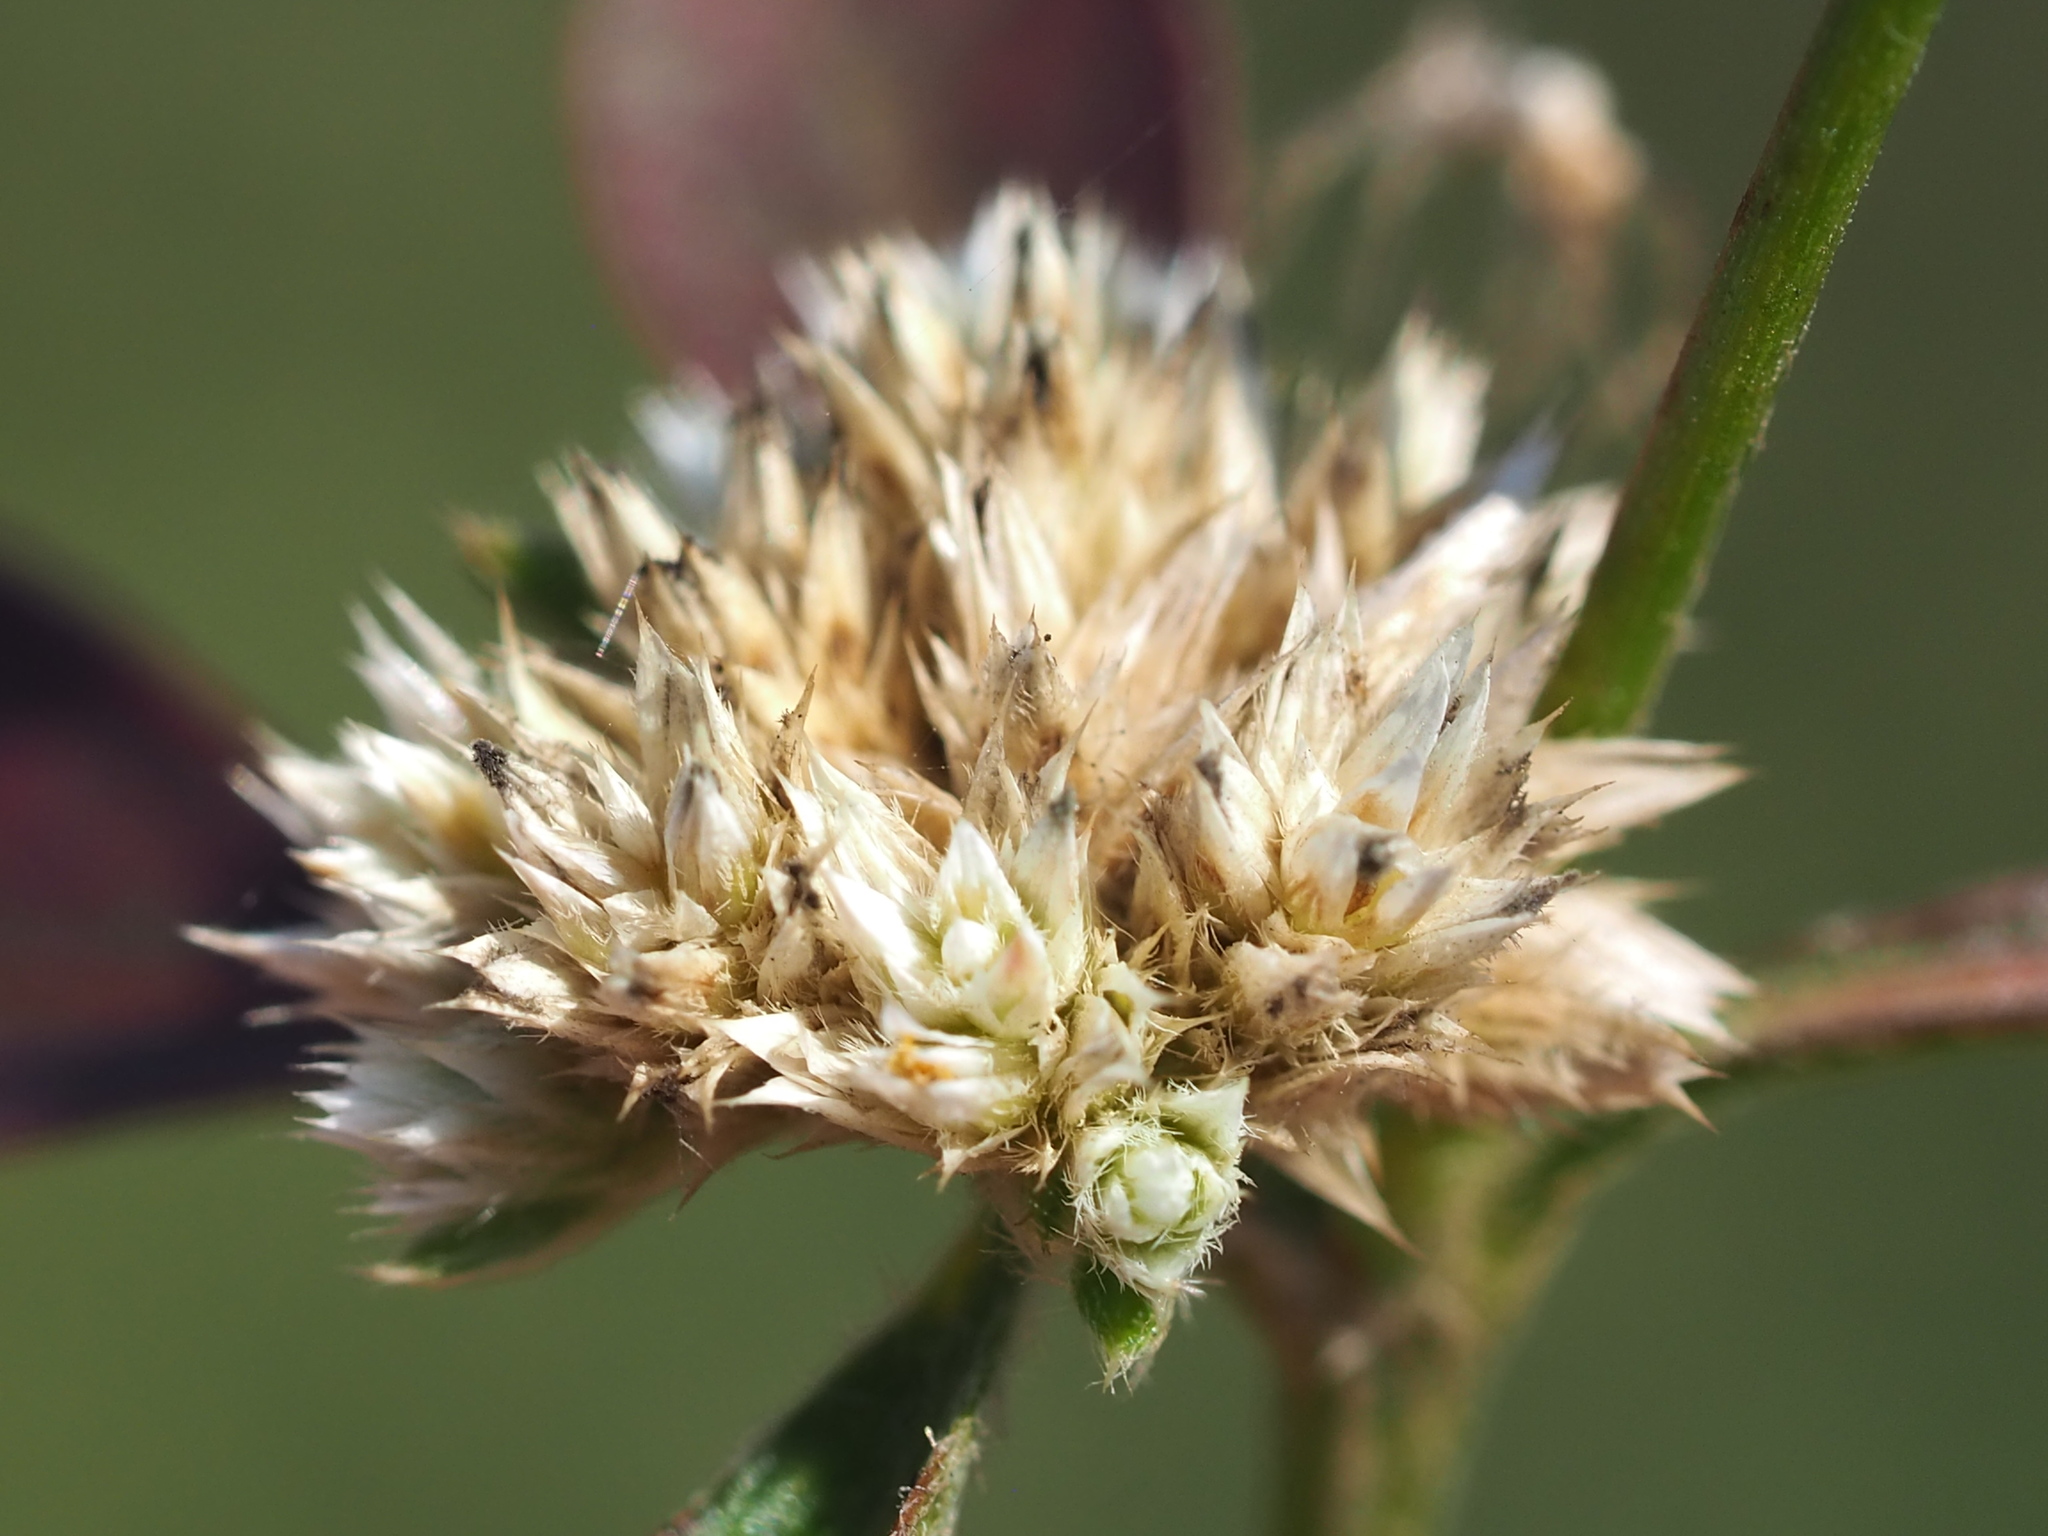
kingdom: Plantae
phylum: Tracheophyta
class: Magnoliopsida
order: Caryophyllales
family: Amaranthaceae
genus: Alternanthera
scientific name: Alternanthera ficoidea
